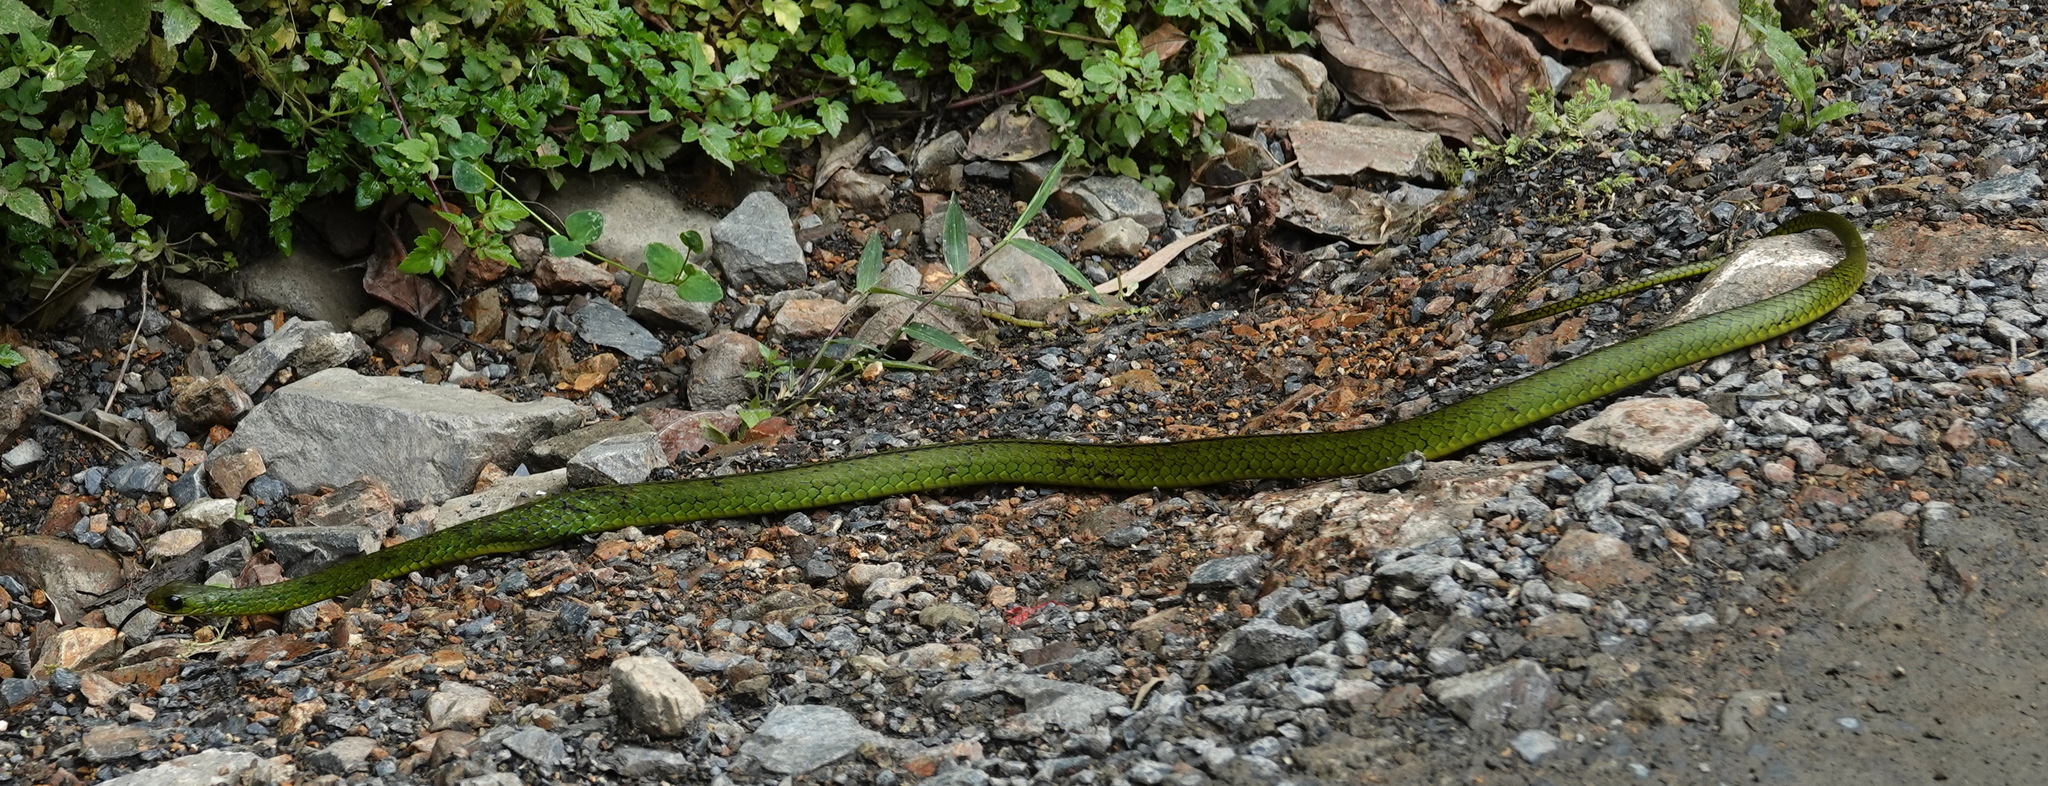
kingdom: Animalia
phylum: Chordata
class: Squamata
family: Colubridae
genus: Chironius
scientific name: Chironius monticola
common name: Mountain sipo
